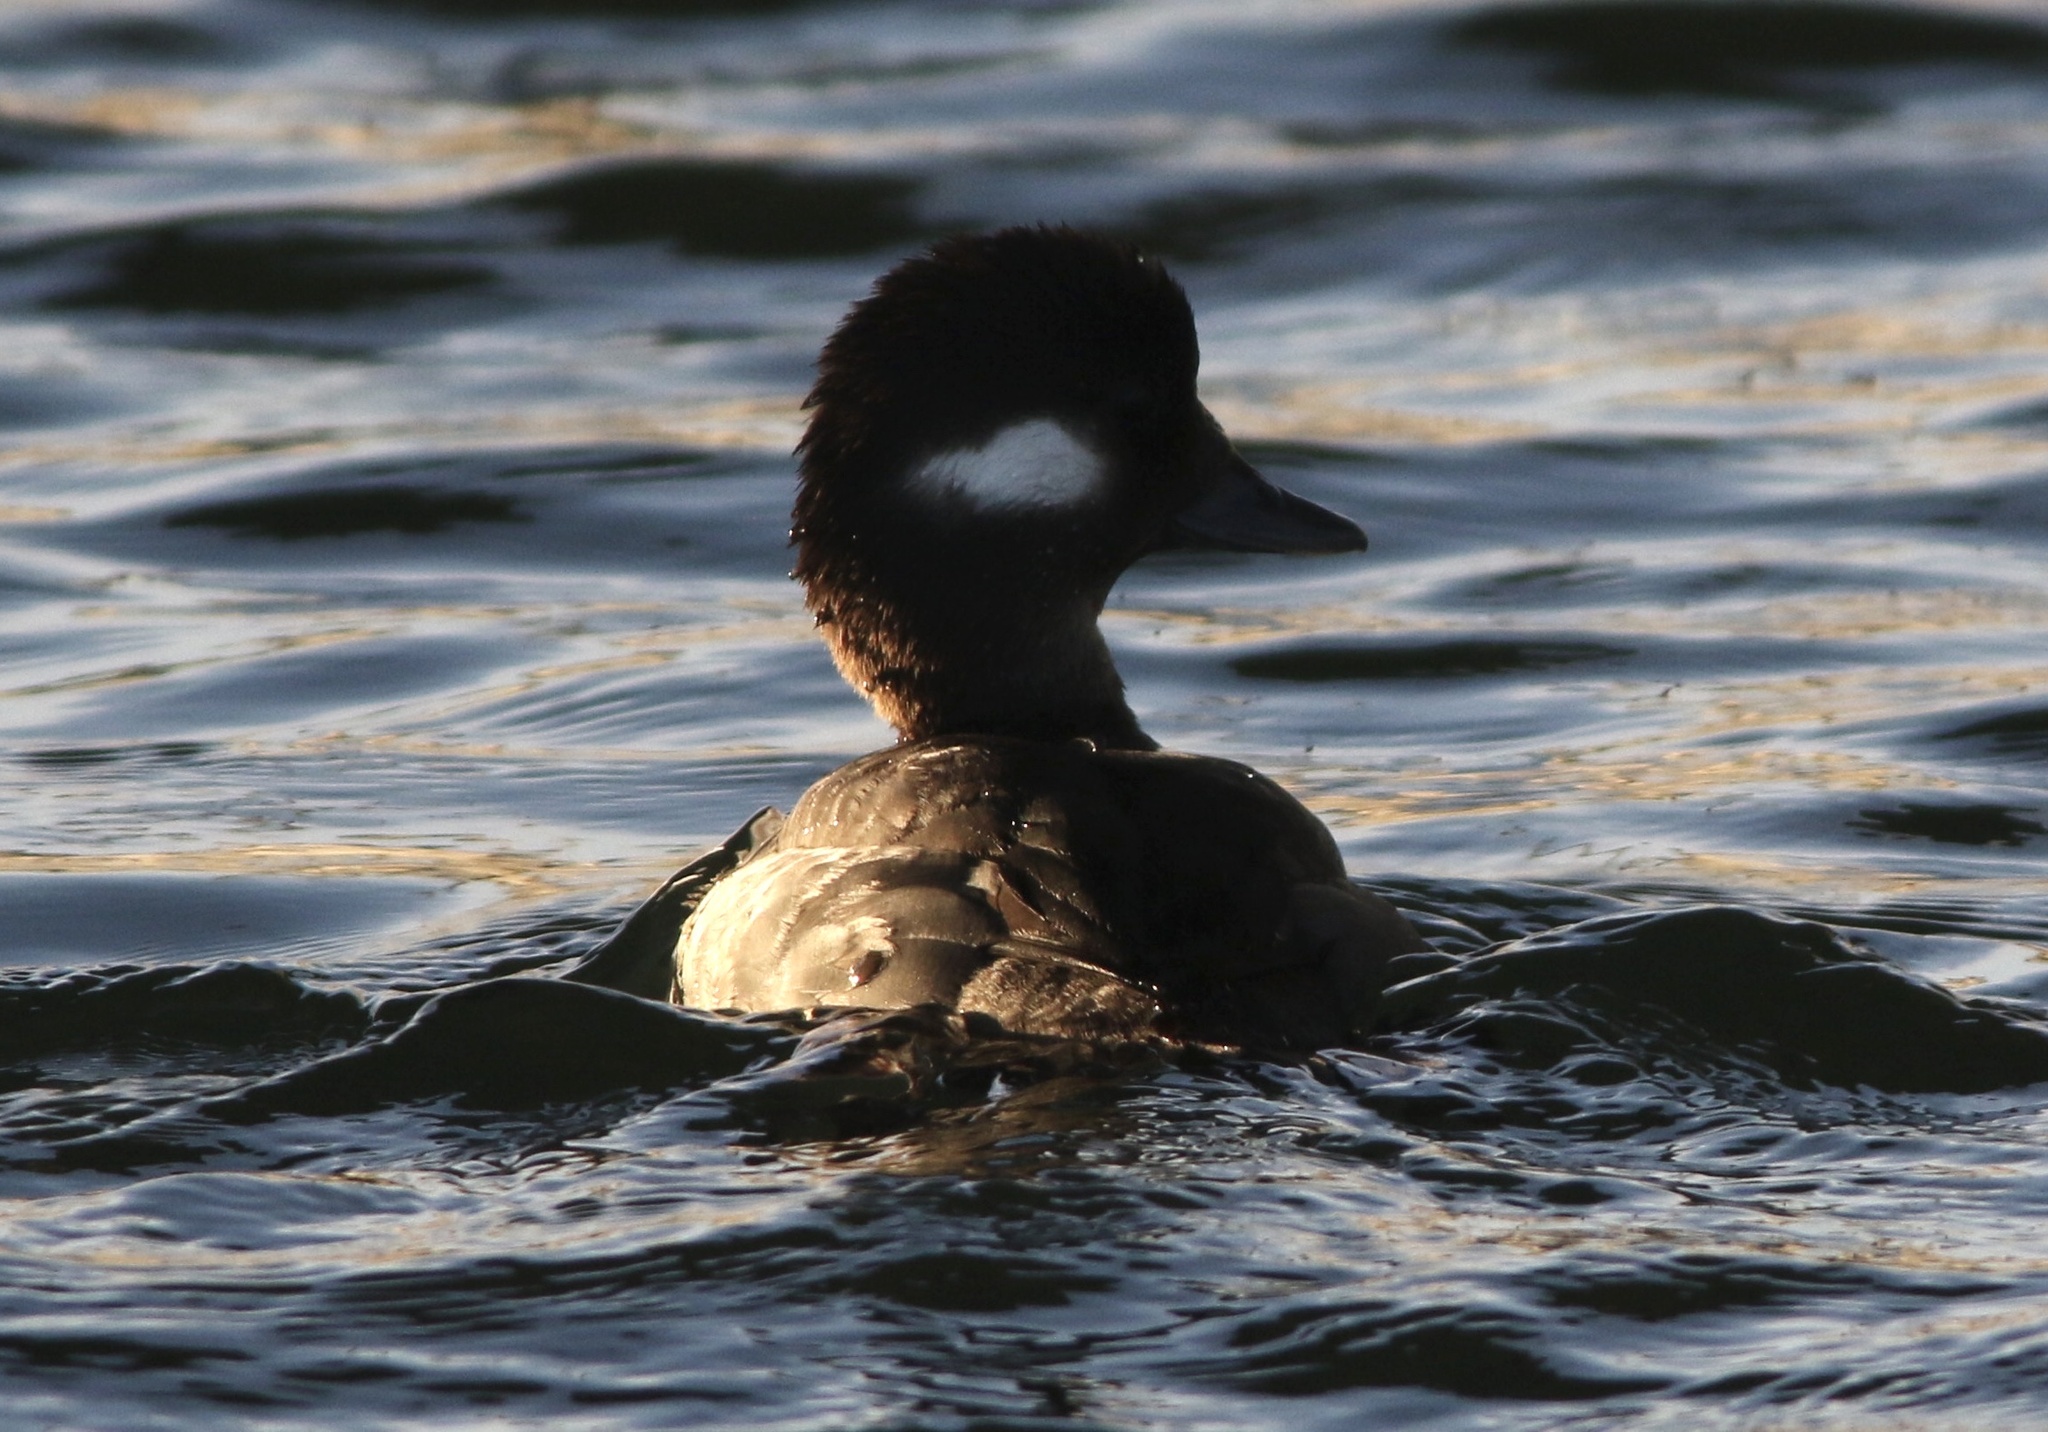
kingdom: Animalia
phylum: Chordata
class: Aves
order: Anseriformes
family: Anatidae
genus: Bucephala
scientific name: Bucephala albeola
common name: Bufflehead
